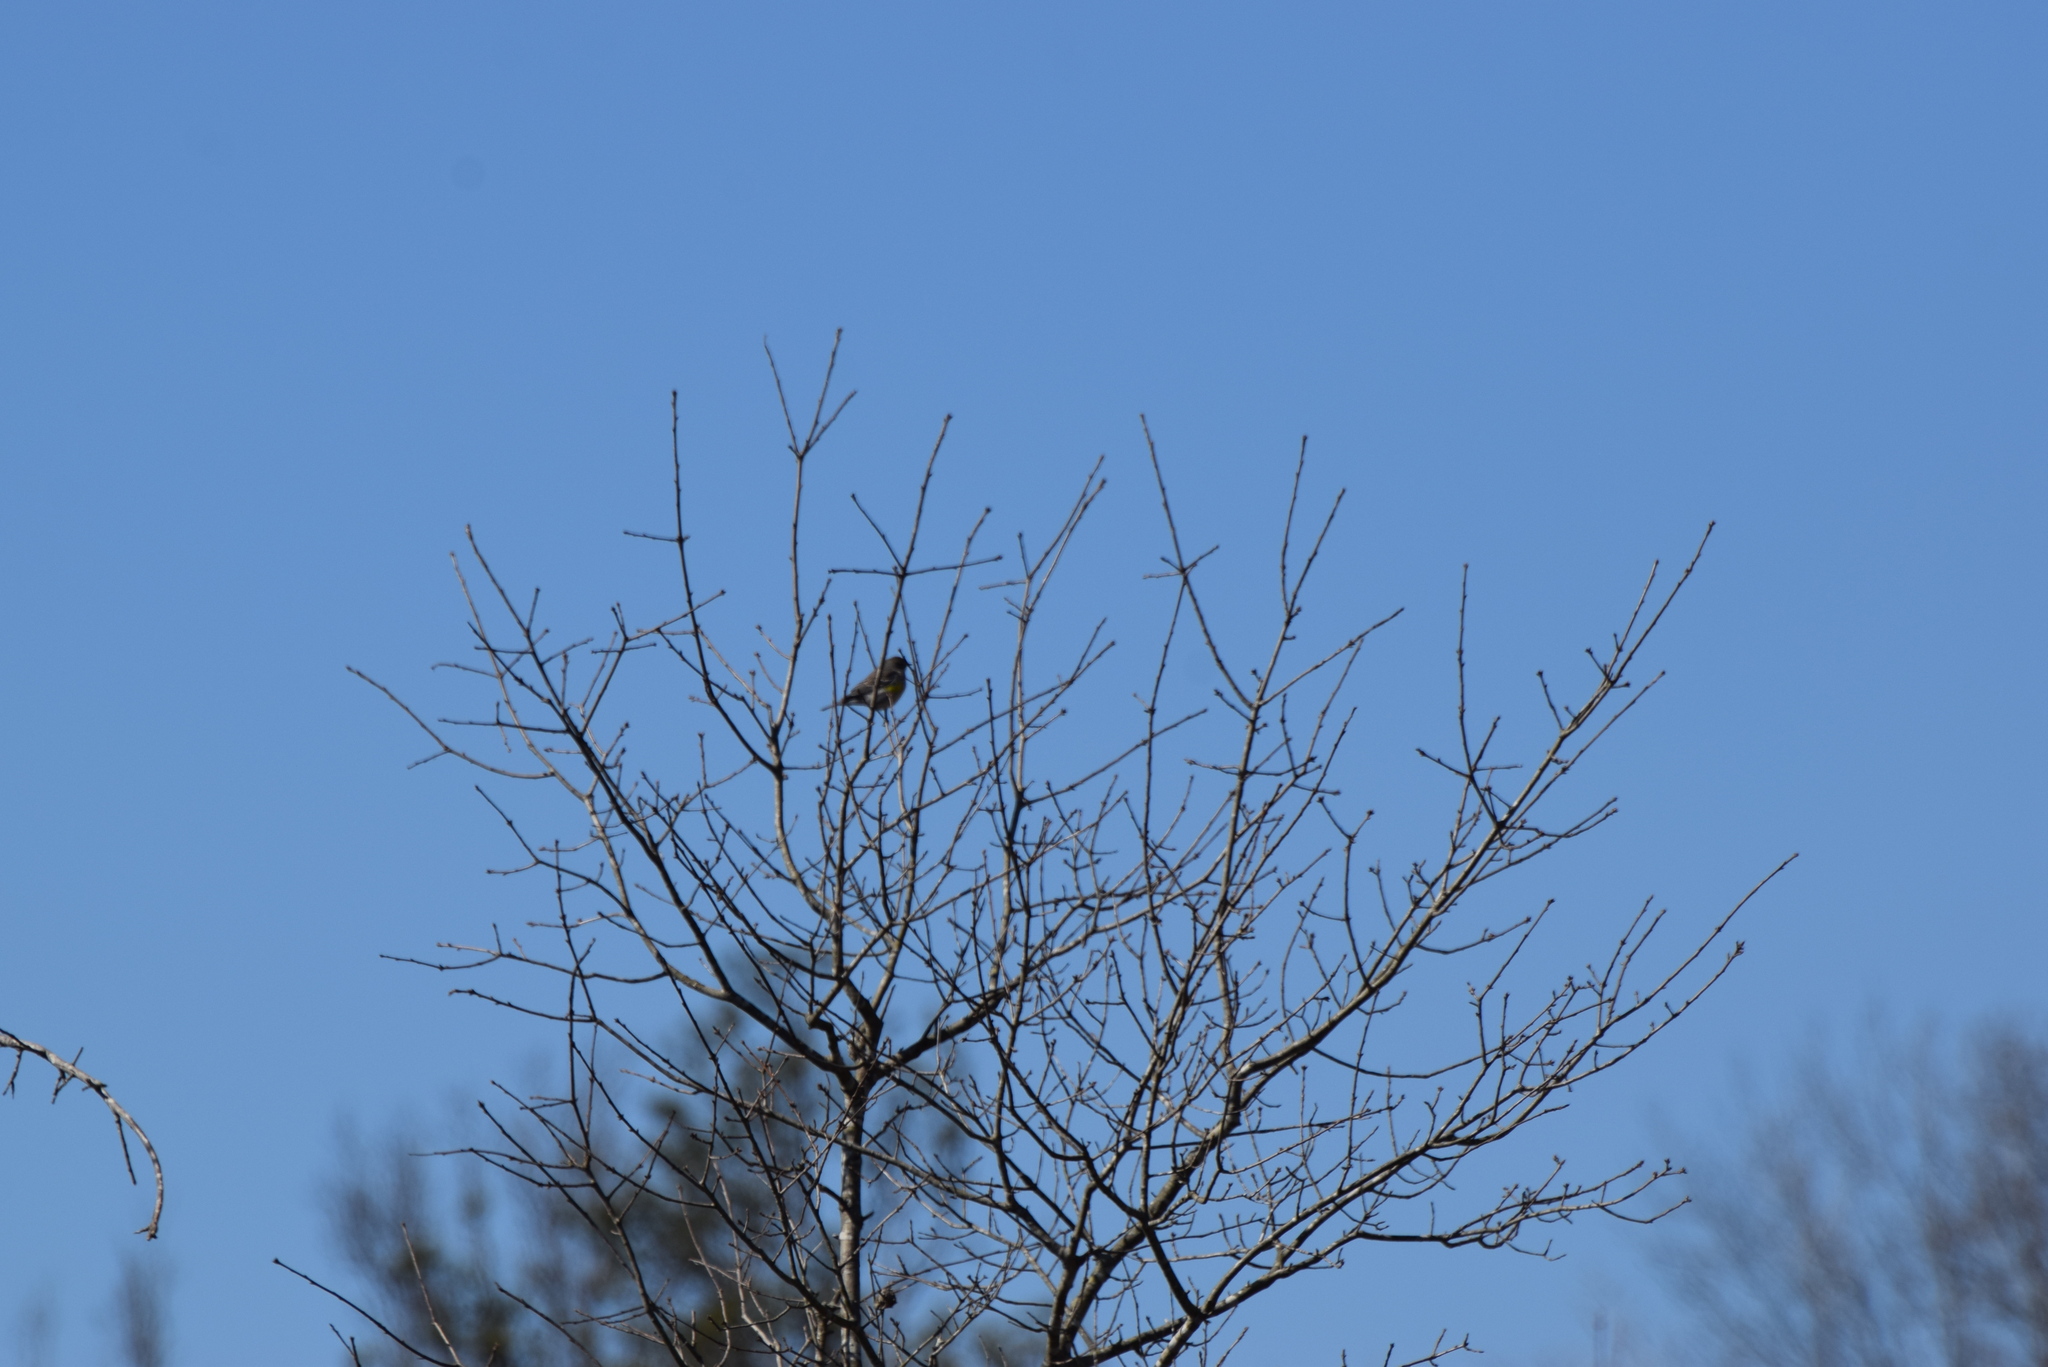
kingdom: Animalia
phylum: Chordata
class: Aves
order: Passeriformes
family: Parulidae
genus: Setophaga
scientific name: Setophaga coronata
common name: Myrtle warbler
